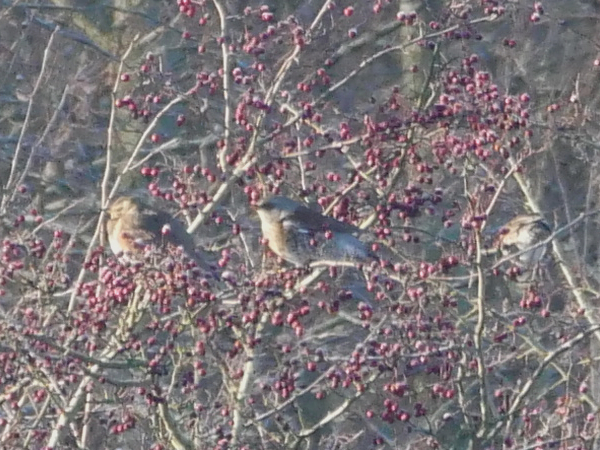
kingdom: Animalia
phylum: Chordata
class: Aves
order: Passeriformes
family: Turdidae
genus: Turdus
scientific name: Turdus pilaris
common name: Fieldfare
